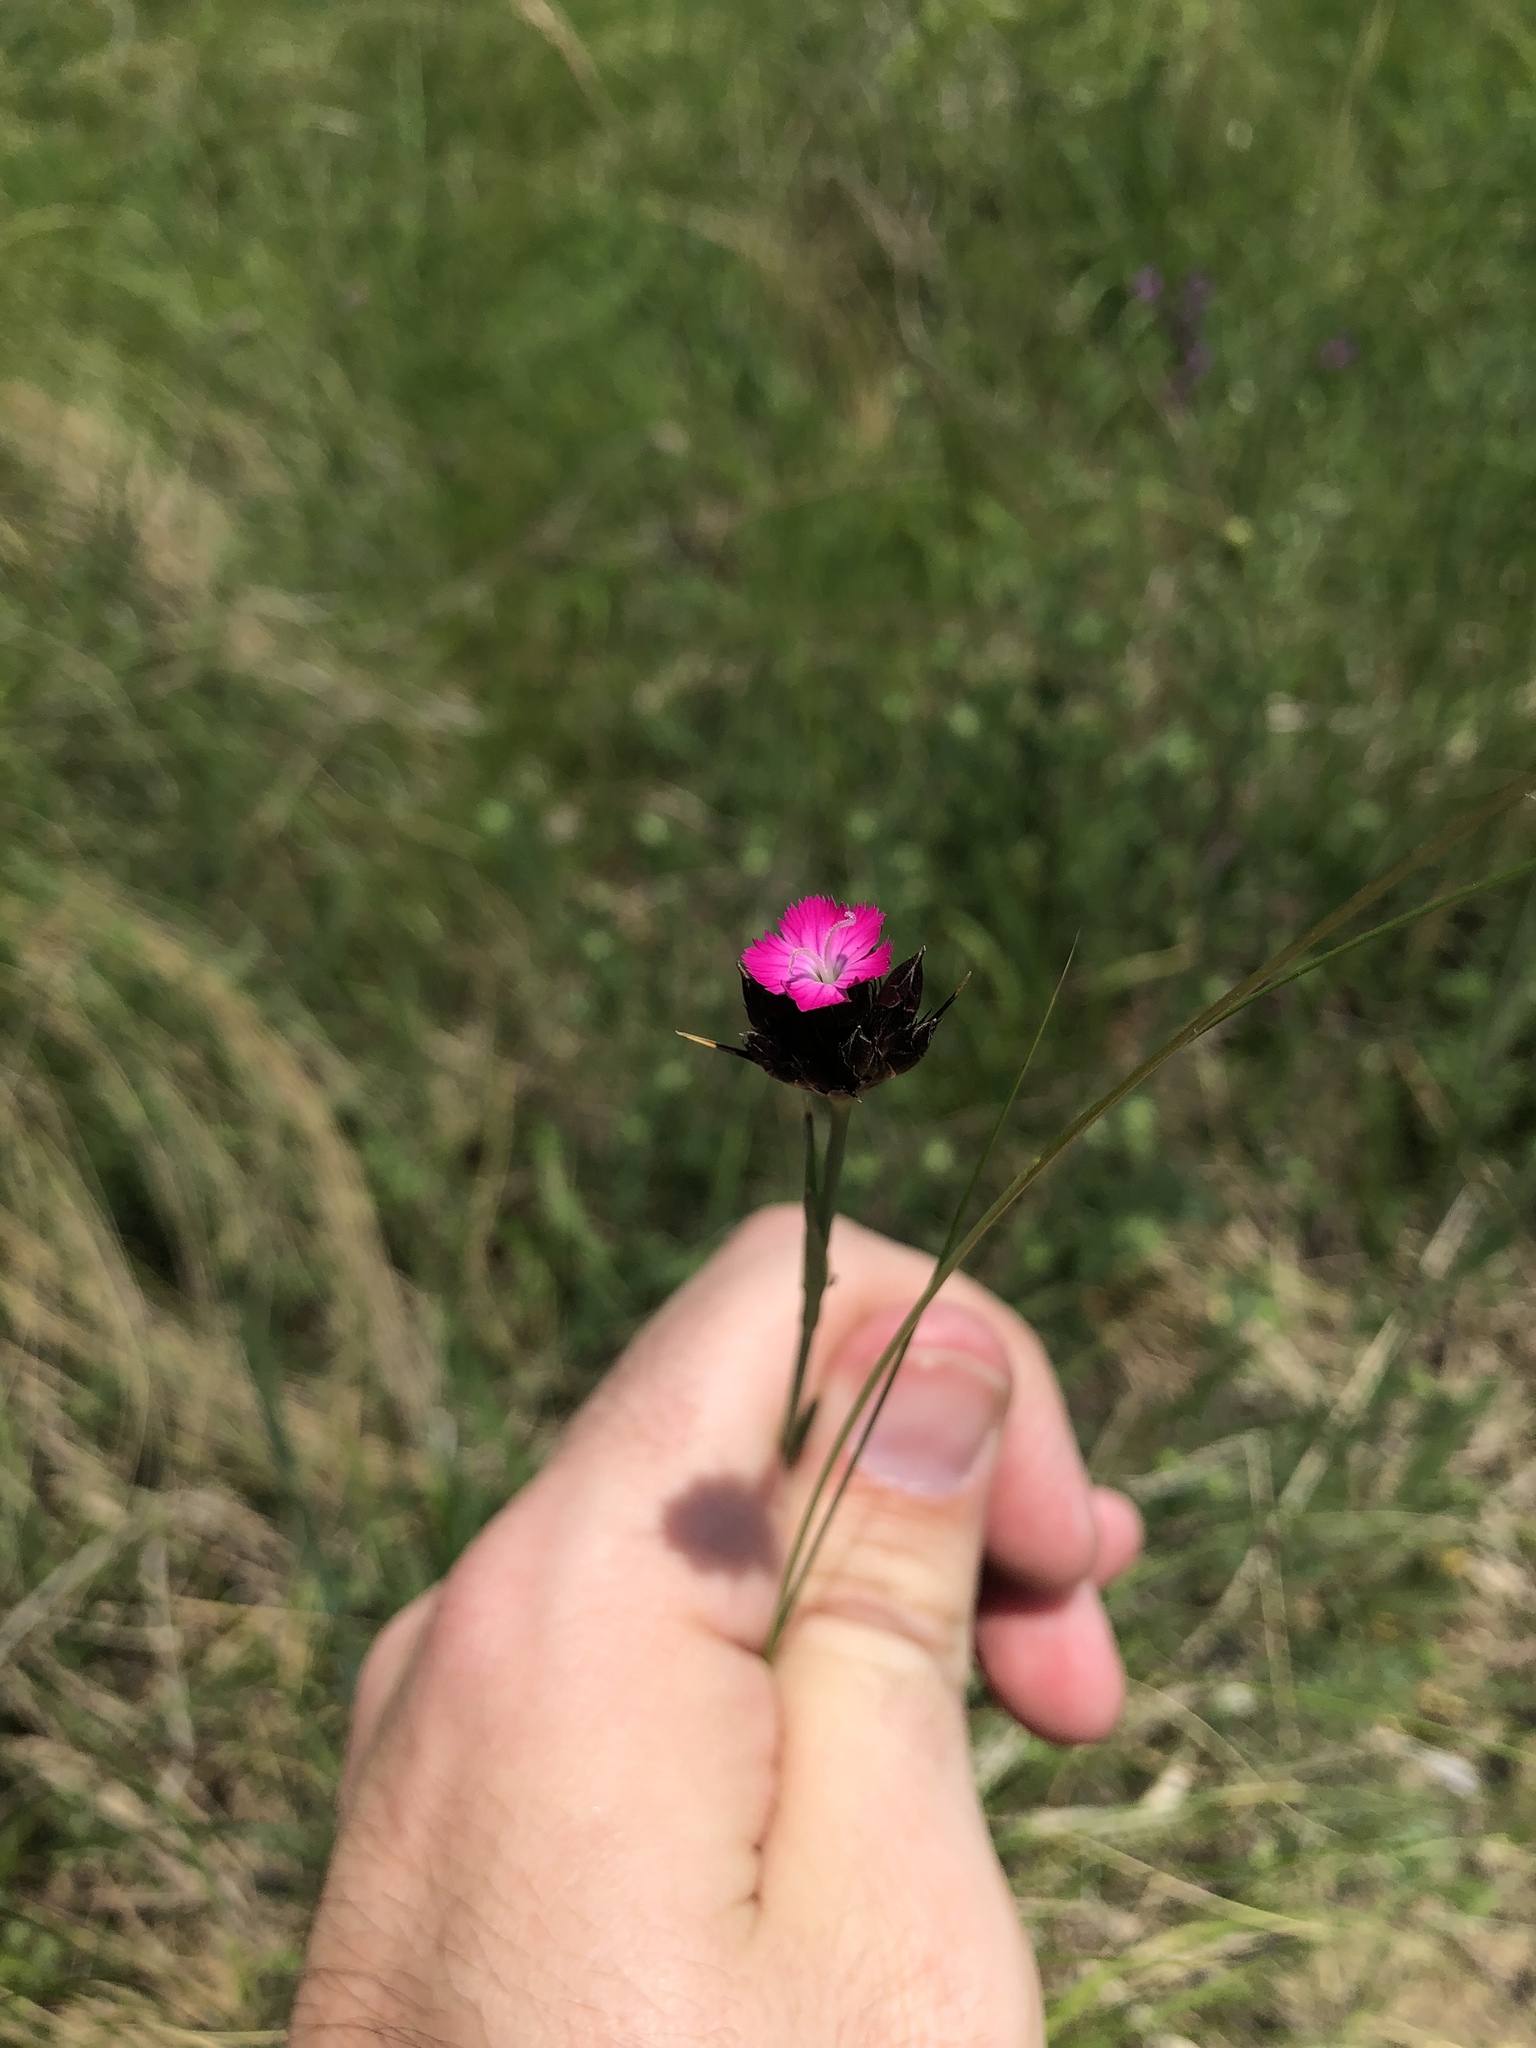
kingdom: Plantae
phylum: Tracheophyta
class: Magnoliopsida
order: Caryophyllales
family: Caryophyllaceae
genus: Dianthus
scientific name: Dianthus carthusianorum
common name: Carthusian pink
